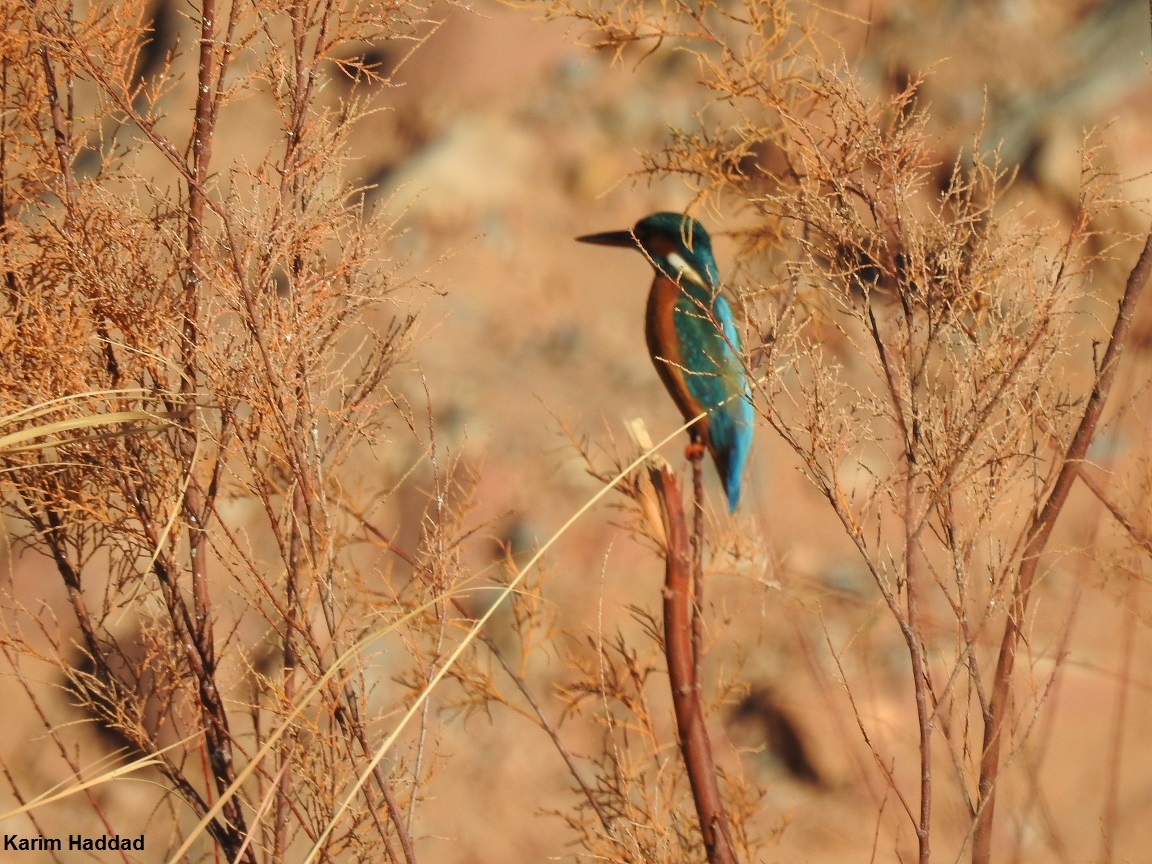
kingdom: Animalia
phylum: Chordata
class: Aves
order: Coraciiformes
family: Alcedinidae
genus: Alcedo
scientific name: Alcedo atthis
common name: Common kingfisher
